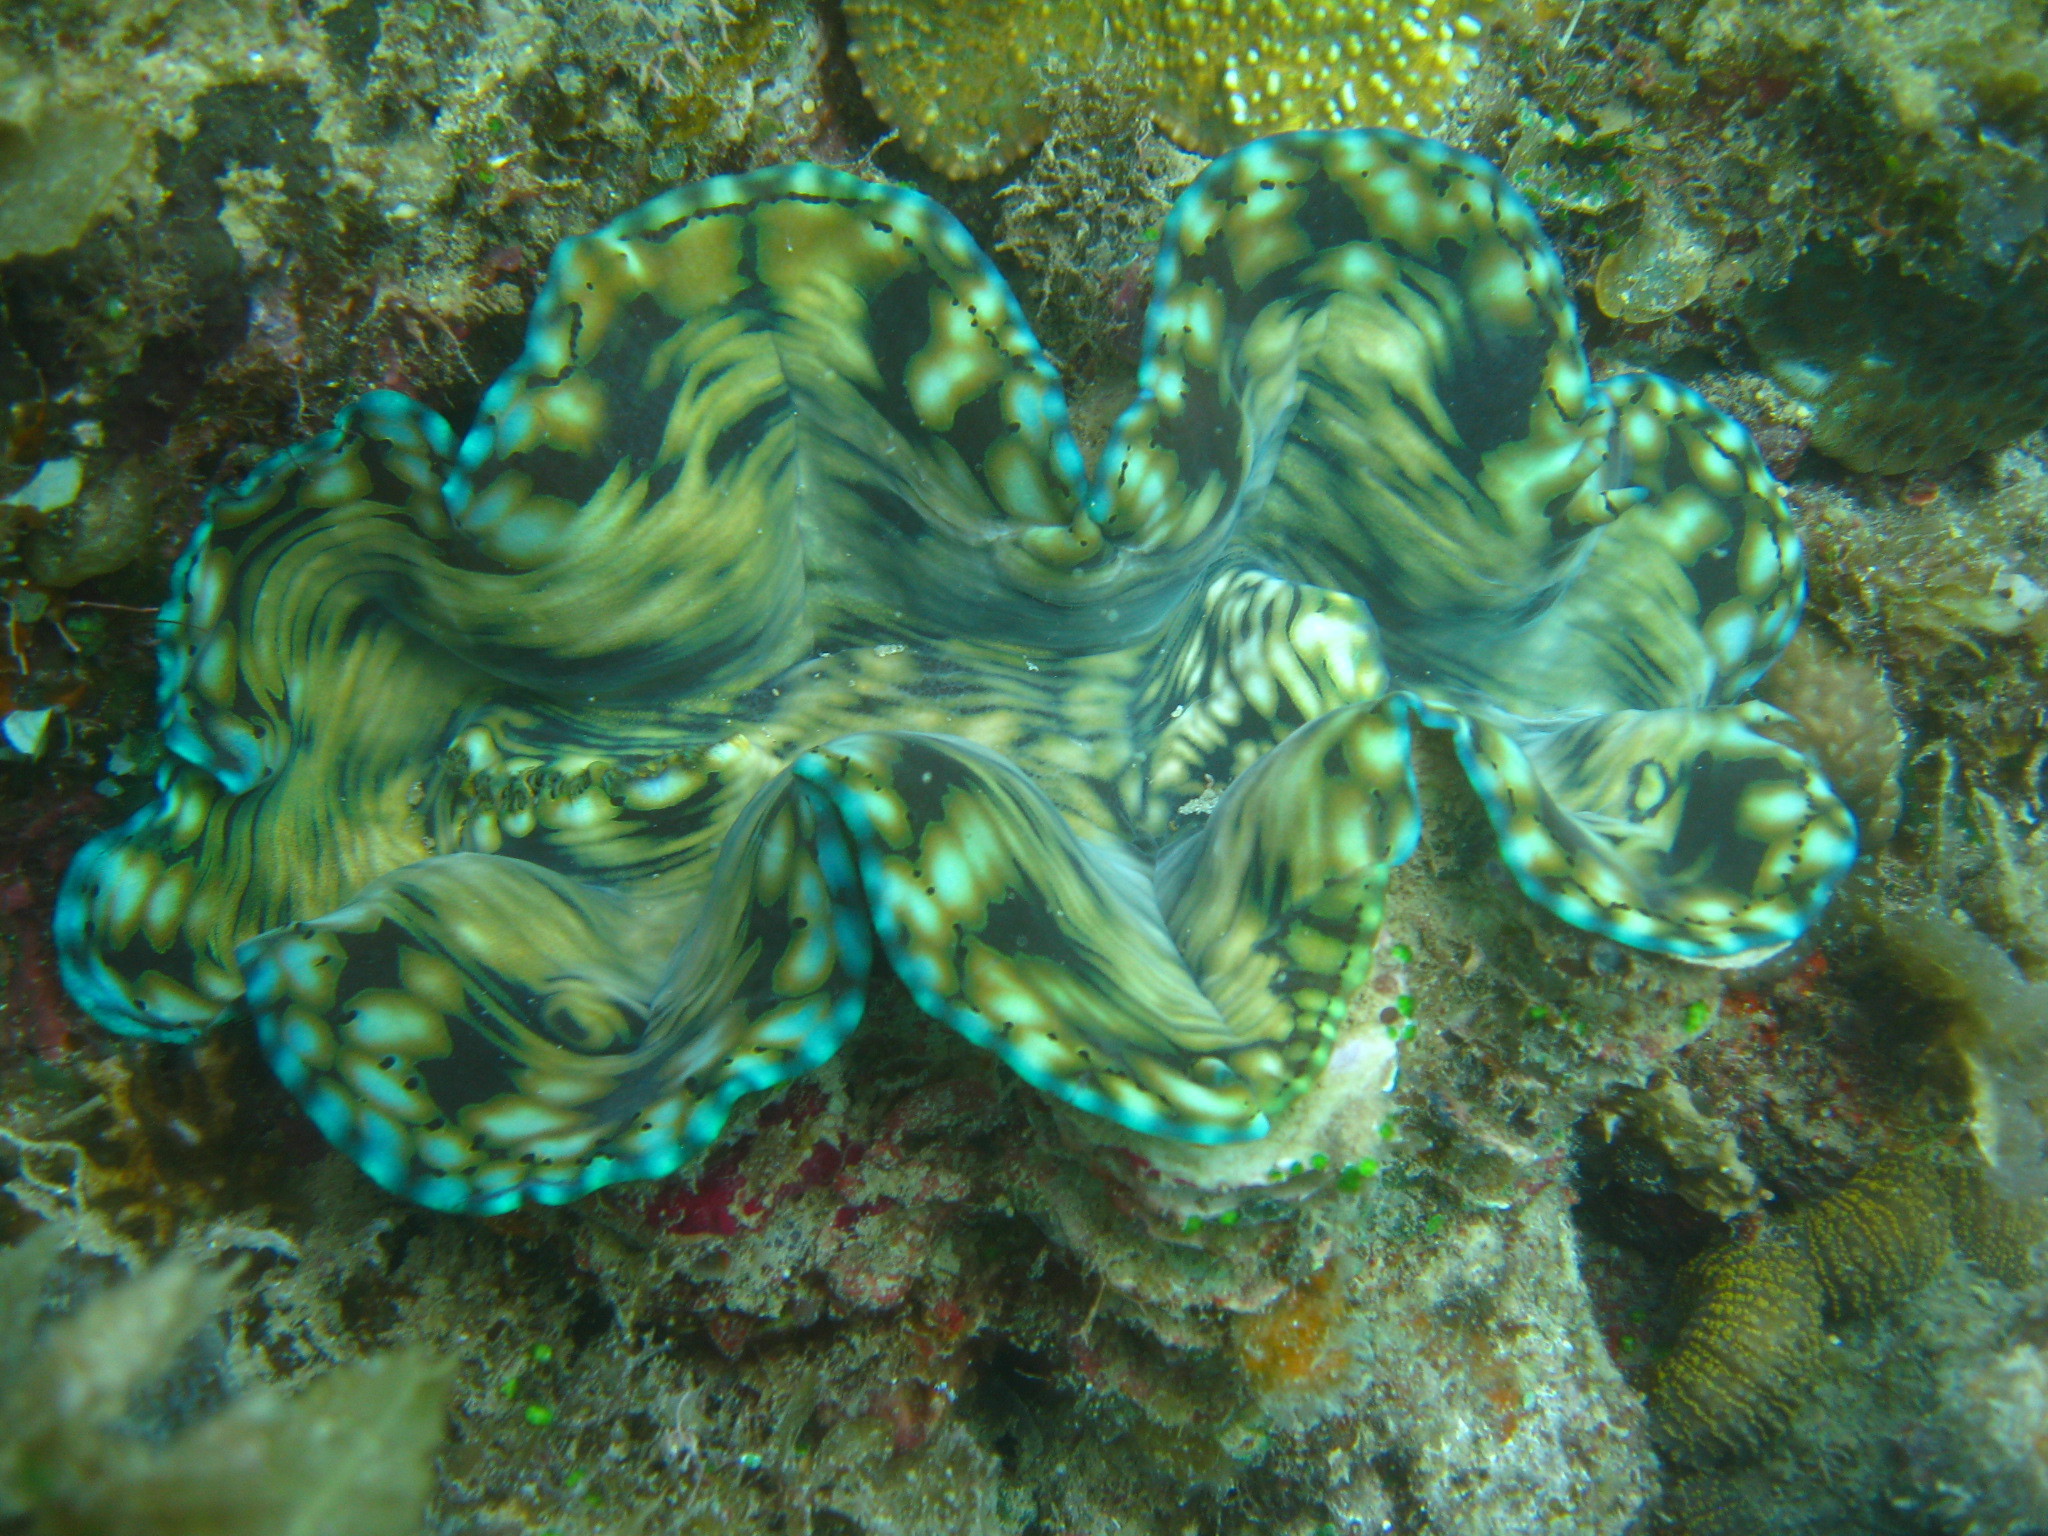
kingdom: Animalia
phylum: Mollusca
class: Bivalvia
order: Cardiida
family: Cardiidae
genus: Tridacna
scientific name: Tridacna squamosa
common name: Fluted clam
